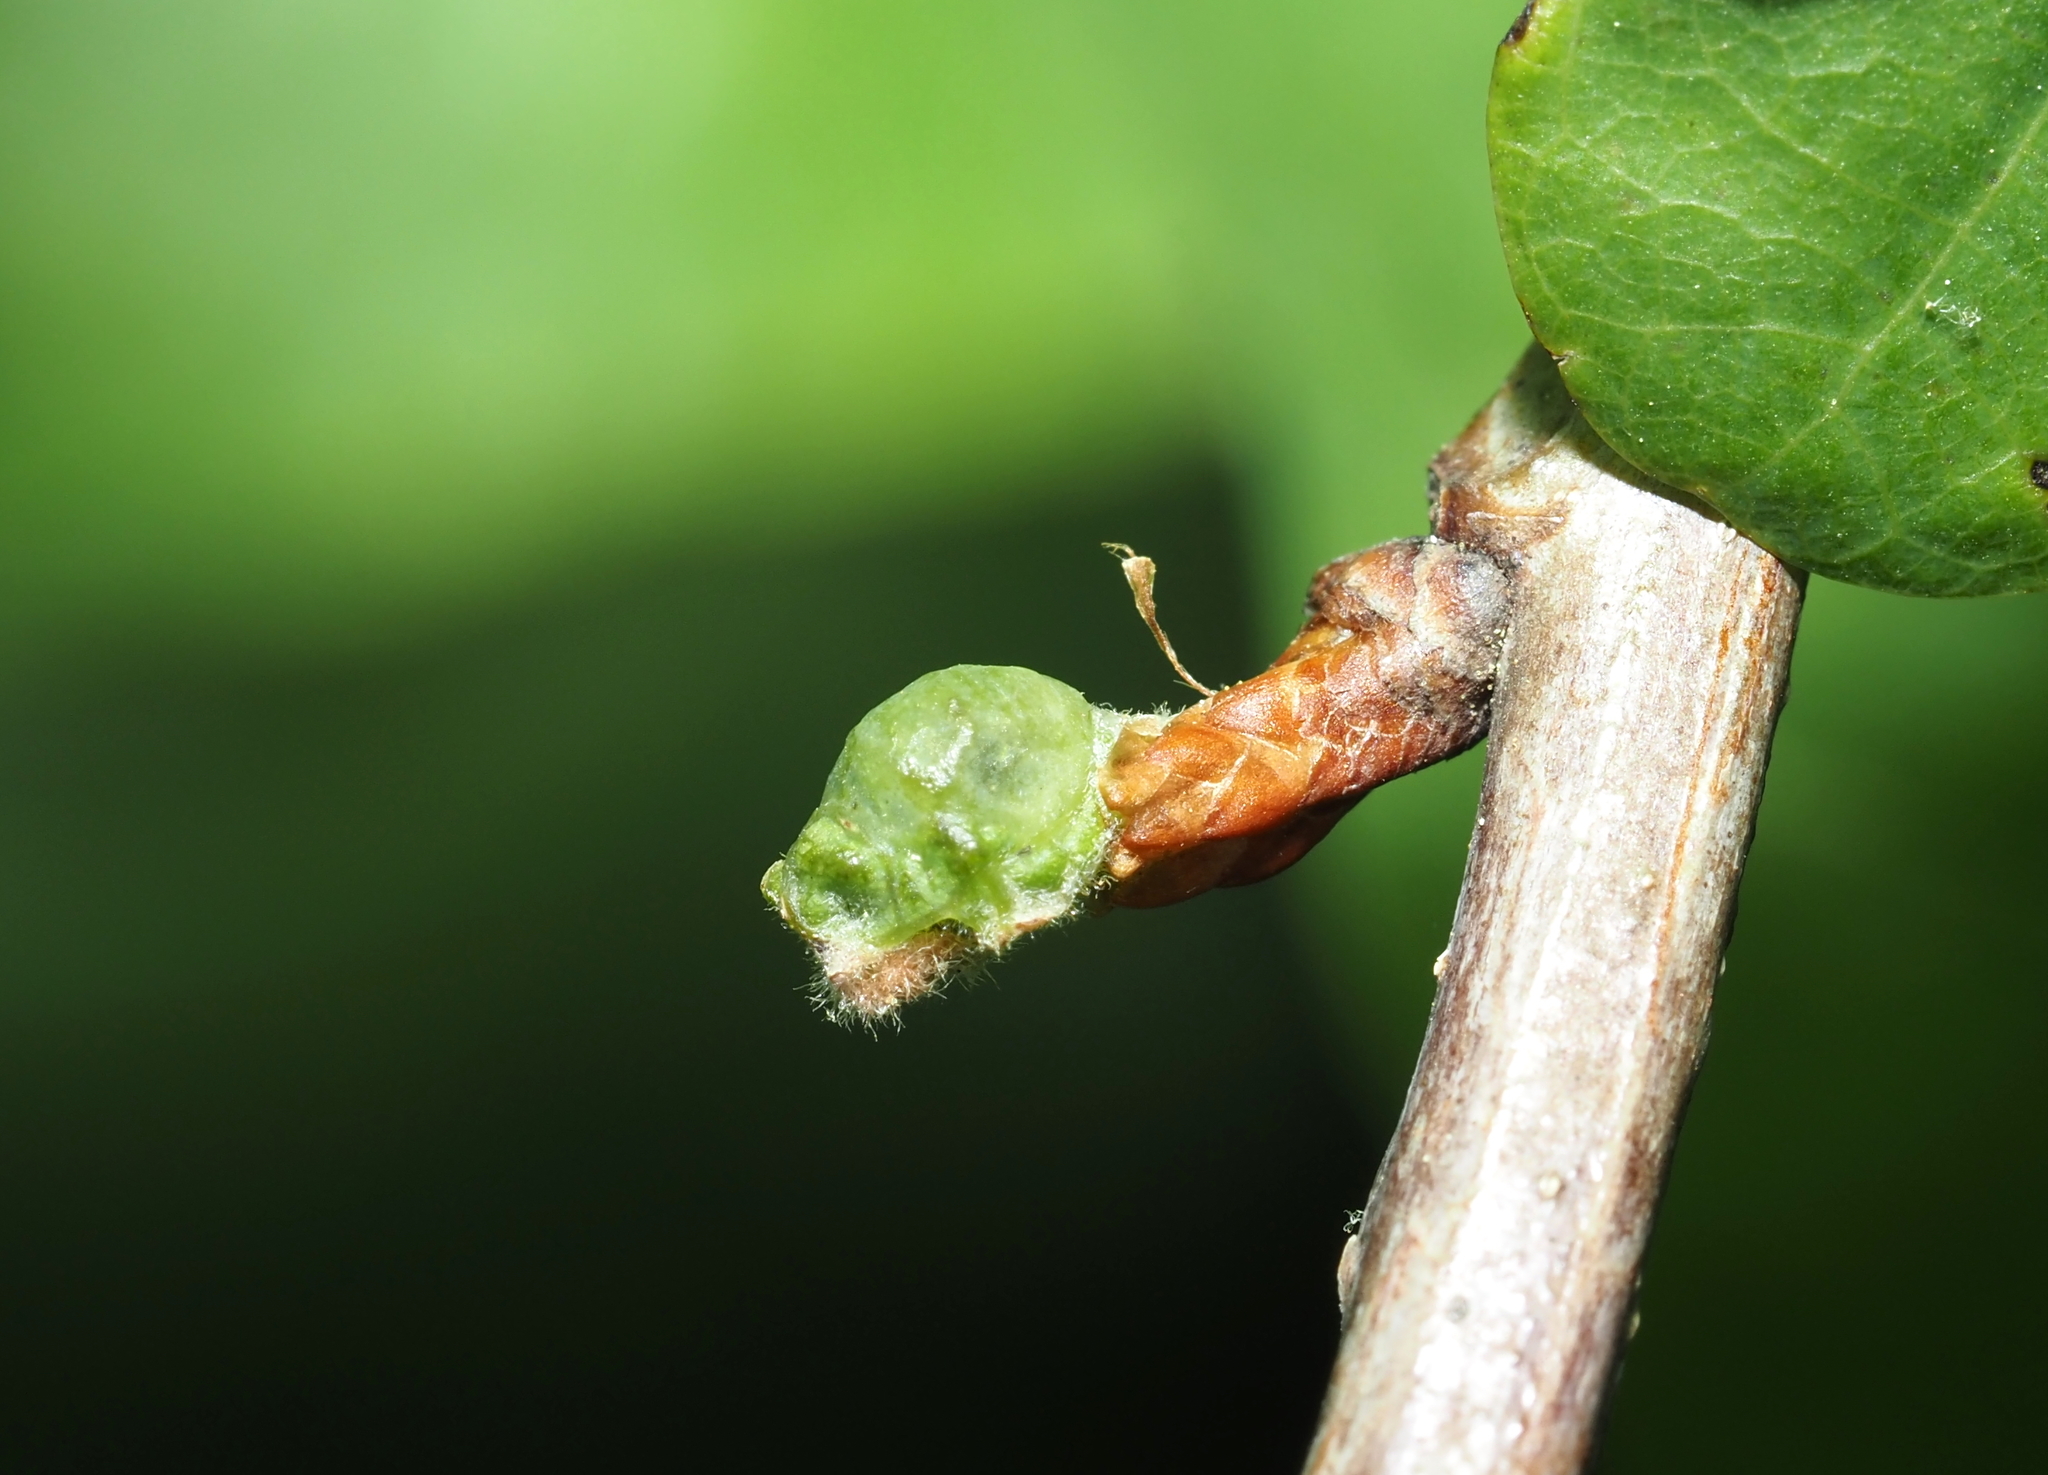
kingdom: Animalia
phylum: Arthropoda
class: Insecta
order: Hymenoptera
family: Cynipidae
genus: Andricus
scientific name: Andricus
